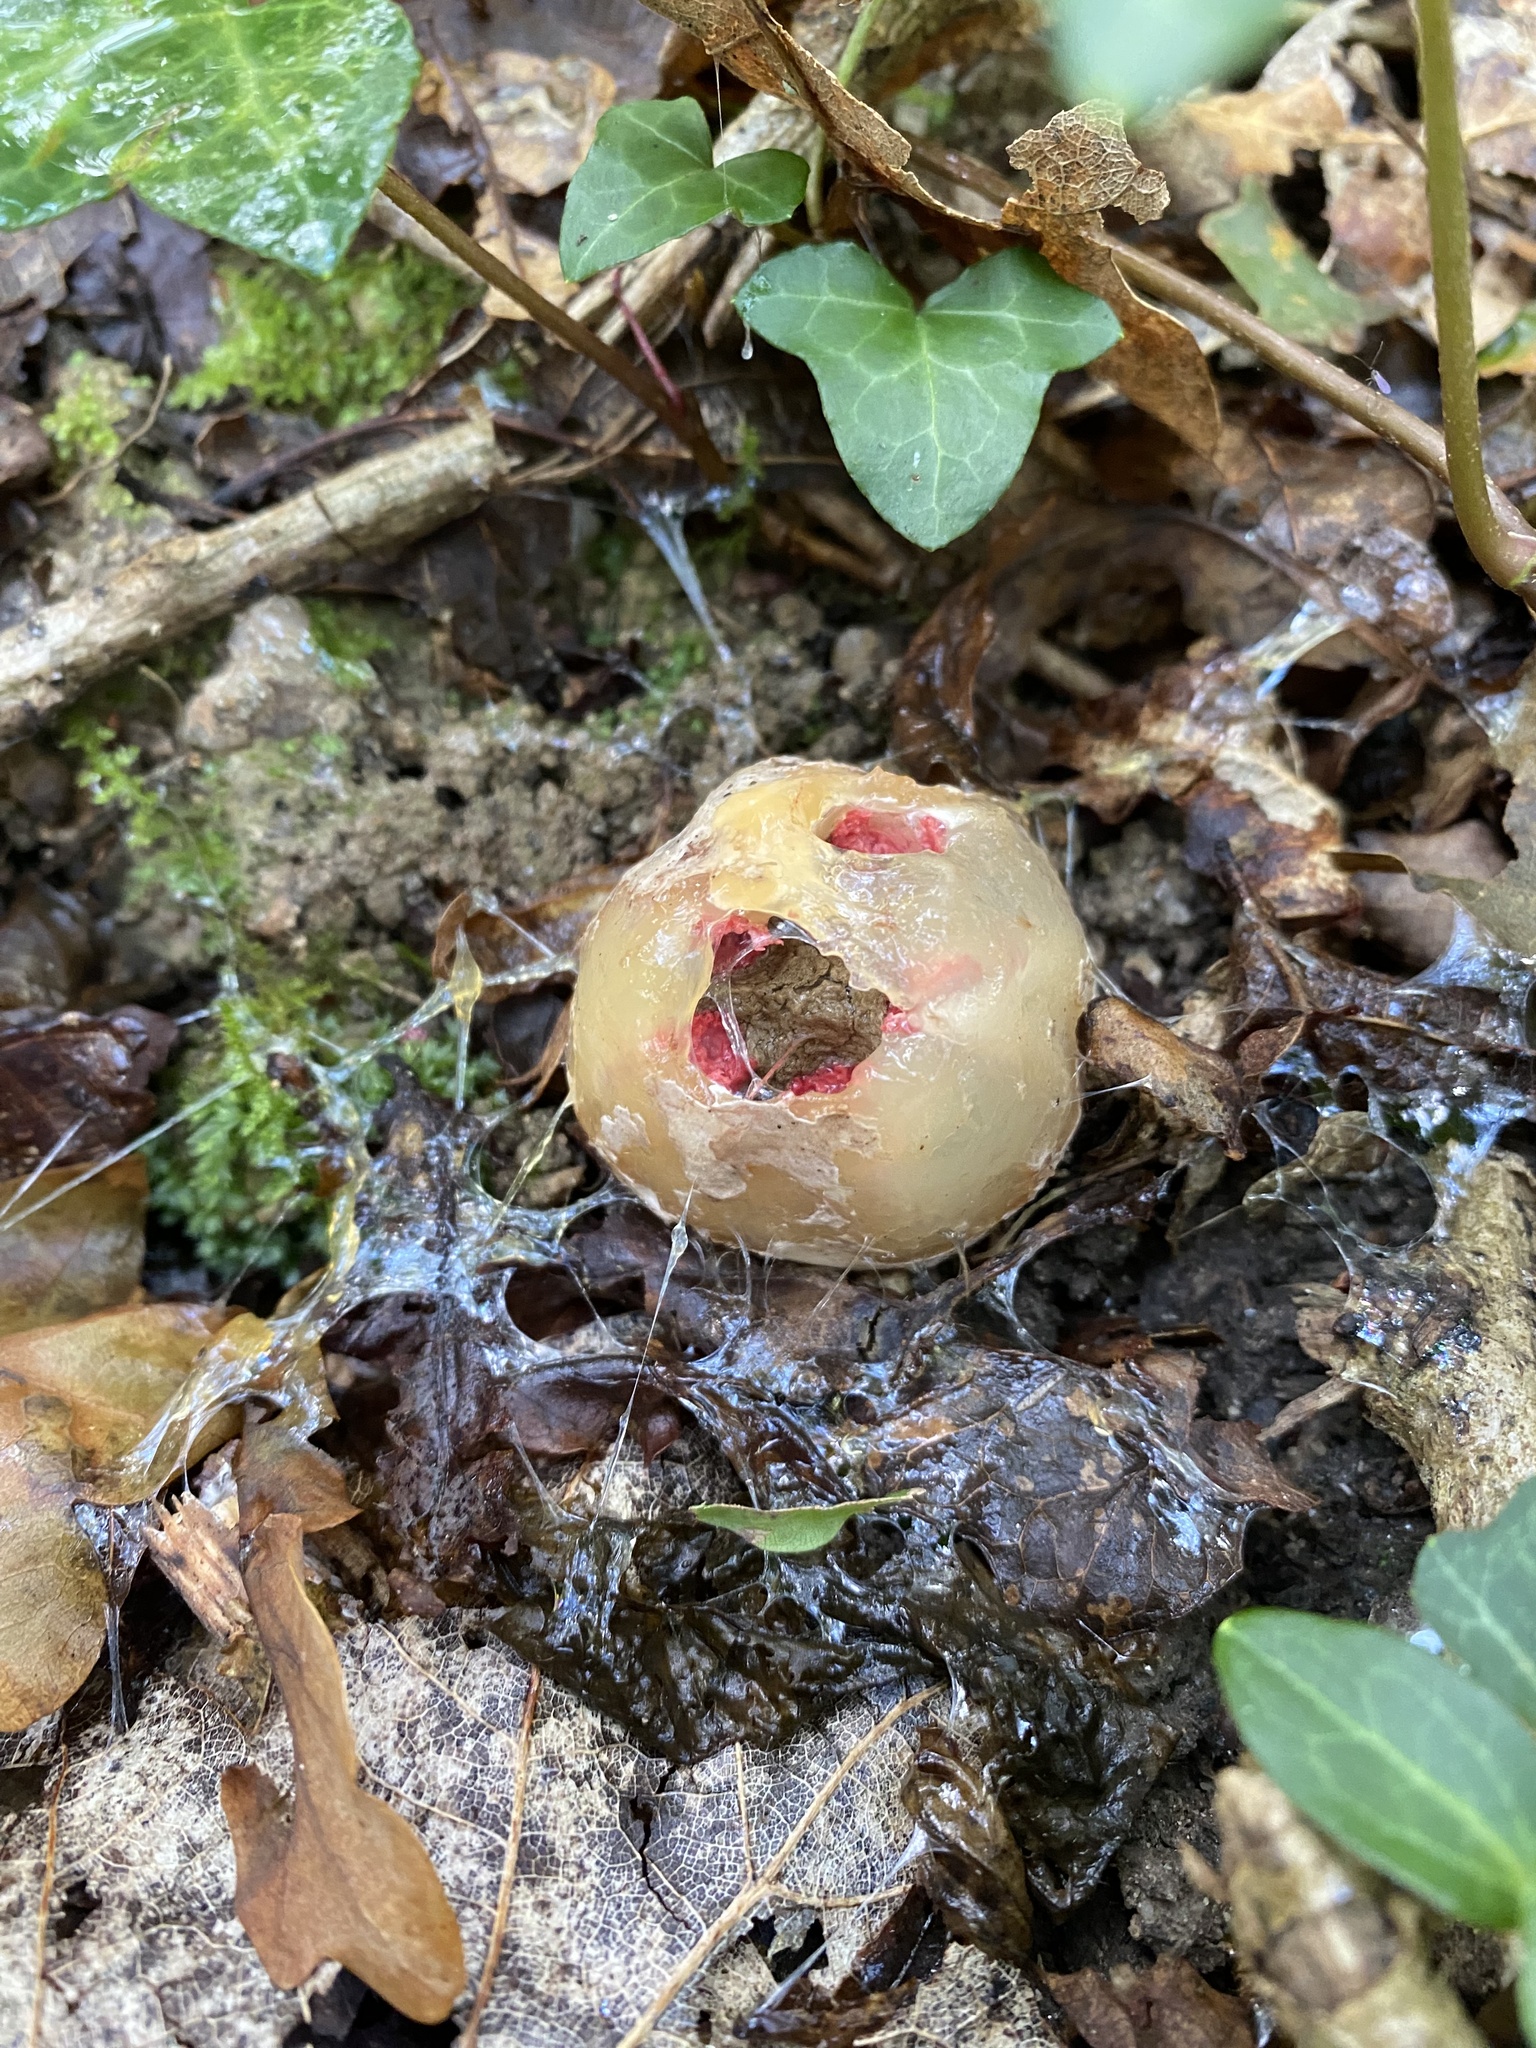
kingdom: Fungi
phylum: Basidiomycota
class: Agaricomycetes
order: Phallales
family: Phallaceae
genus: Clathrus
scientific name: Clathrus ruber
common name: Red cage
